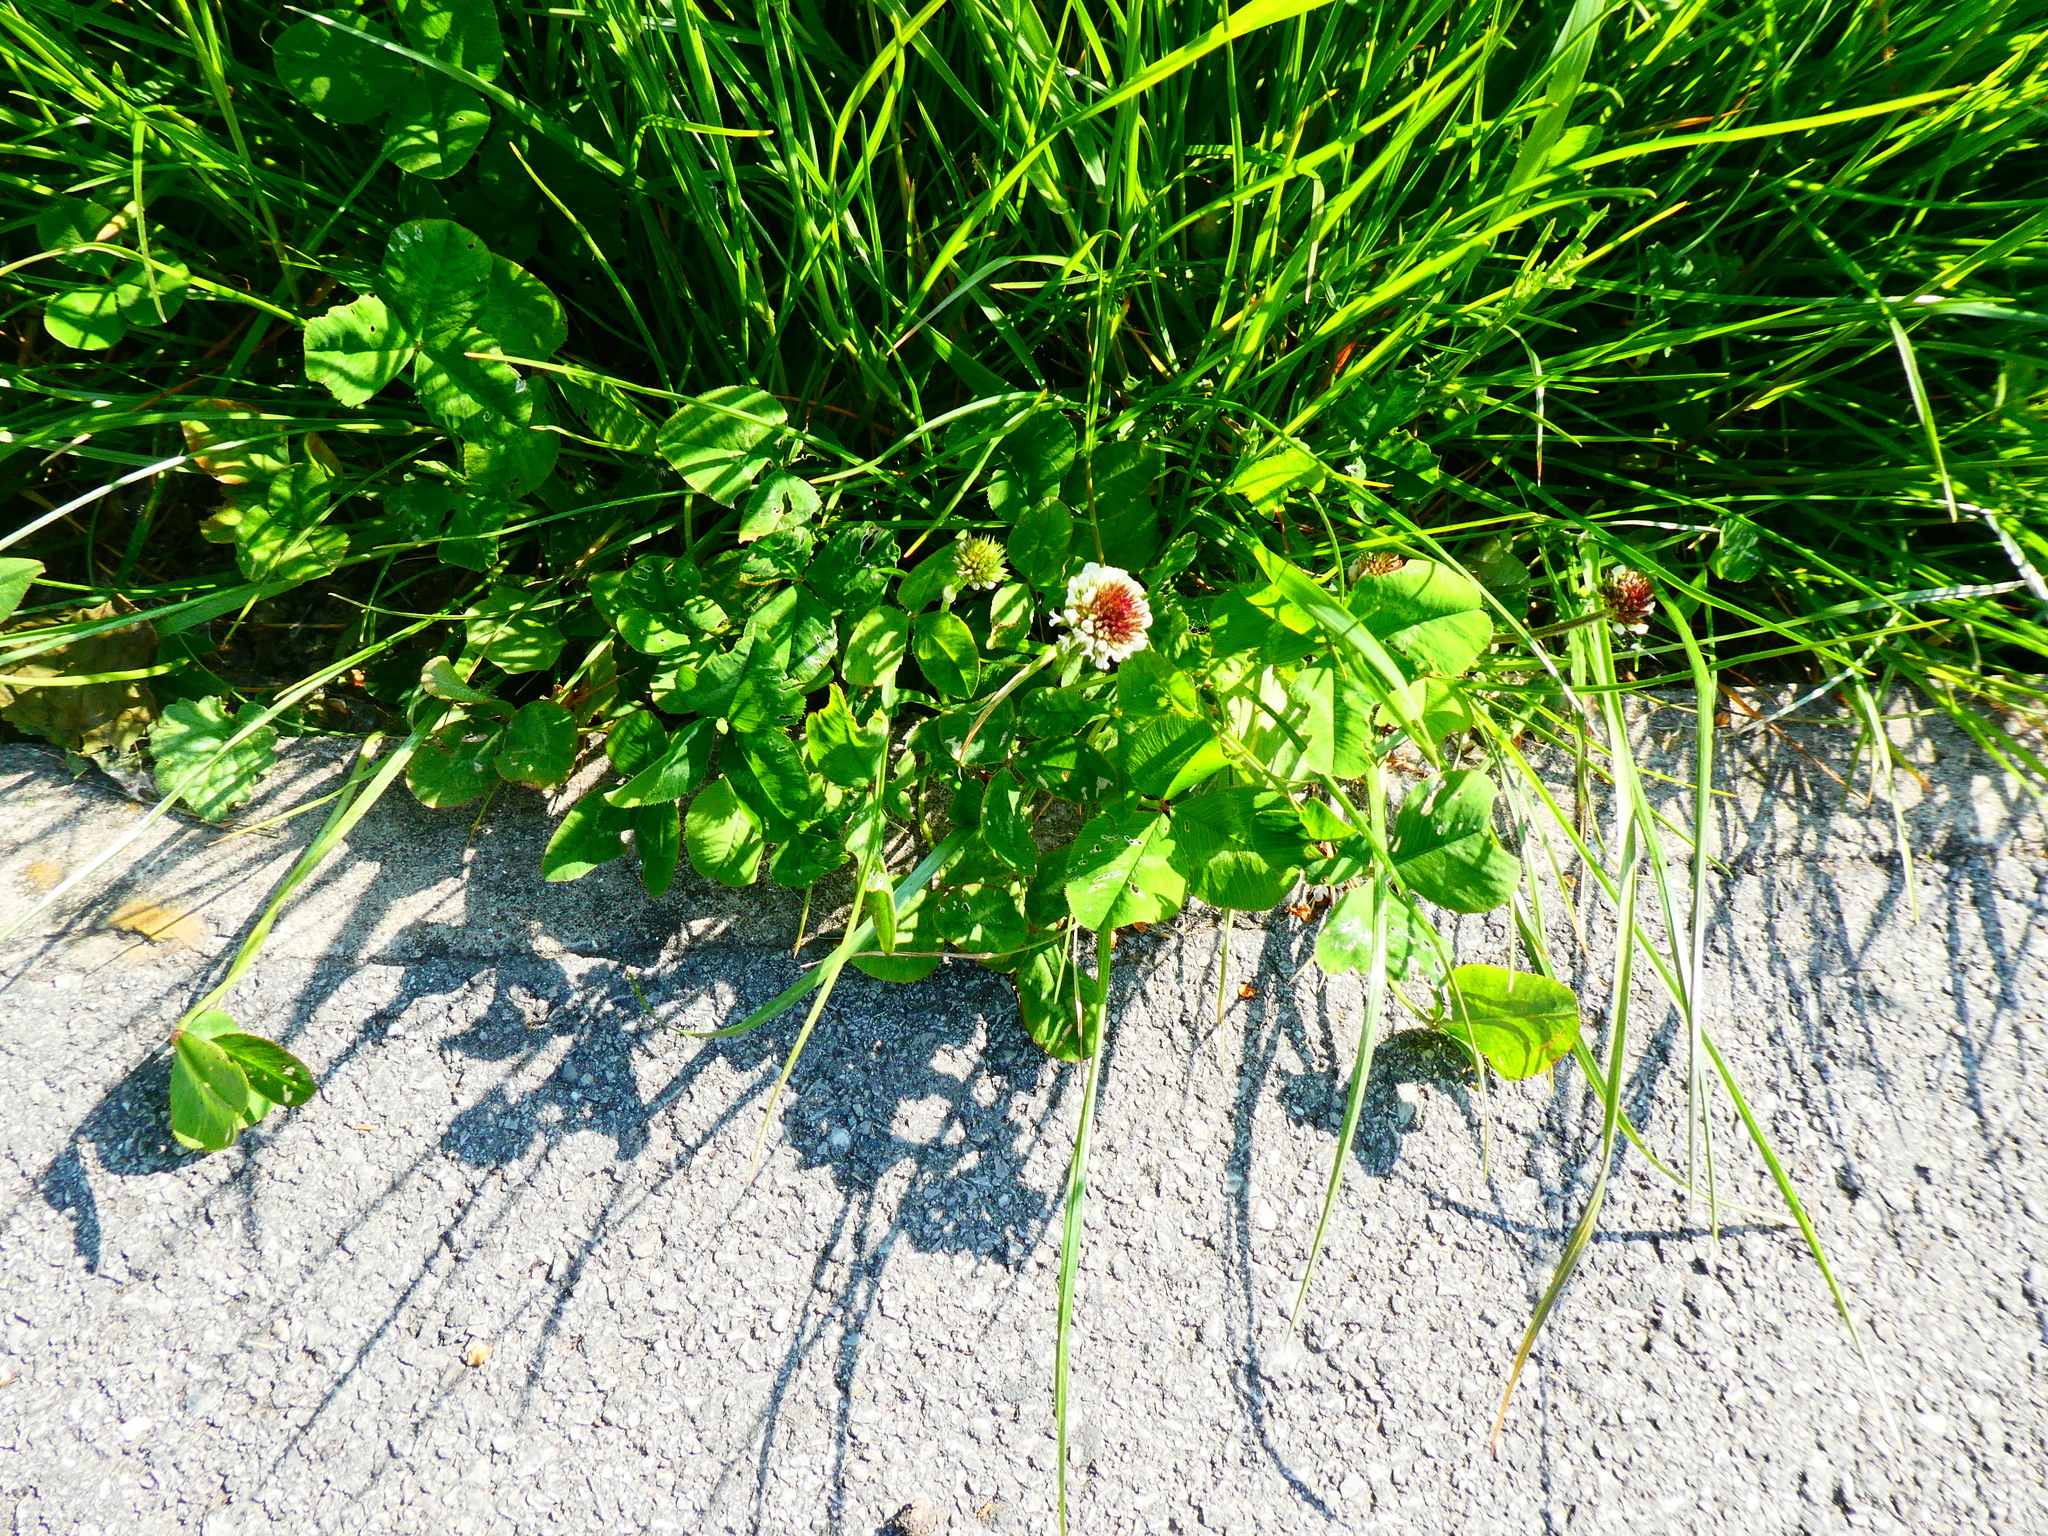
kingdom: Plantae
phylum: Tracheophyta
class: Magnoliopsida
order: Fabales
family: Fabaceae
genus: Trifolium
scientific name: Trifolium repens
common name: White clover
